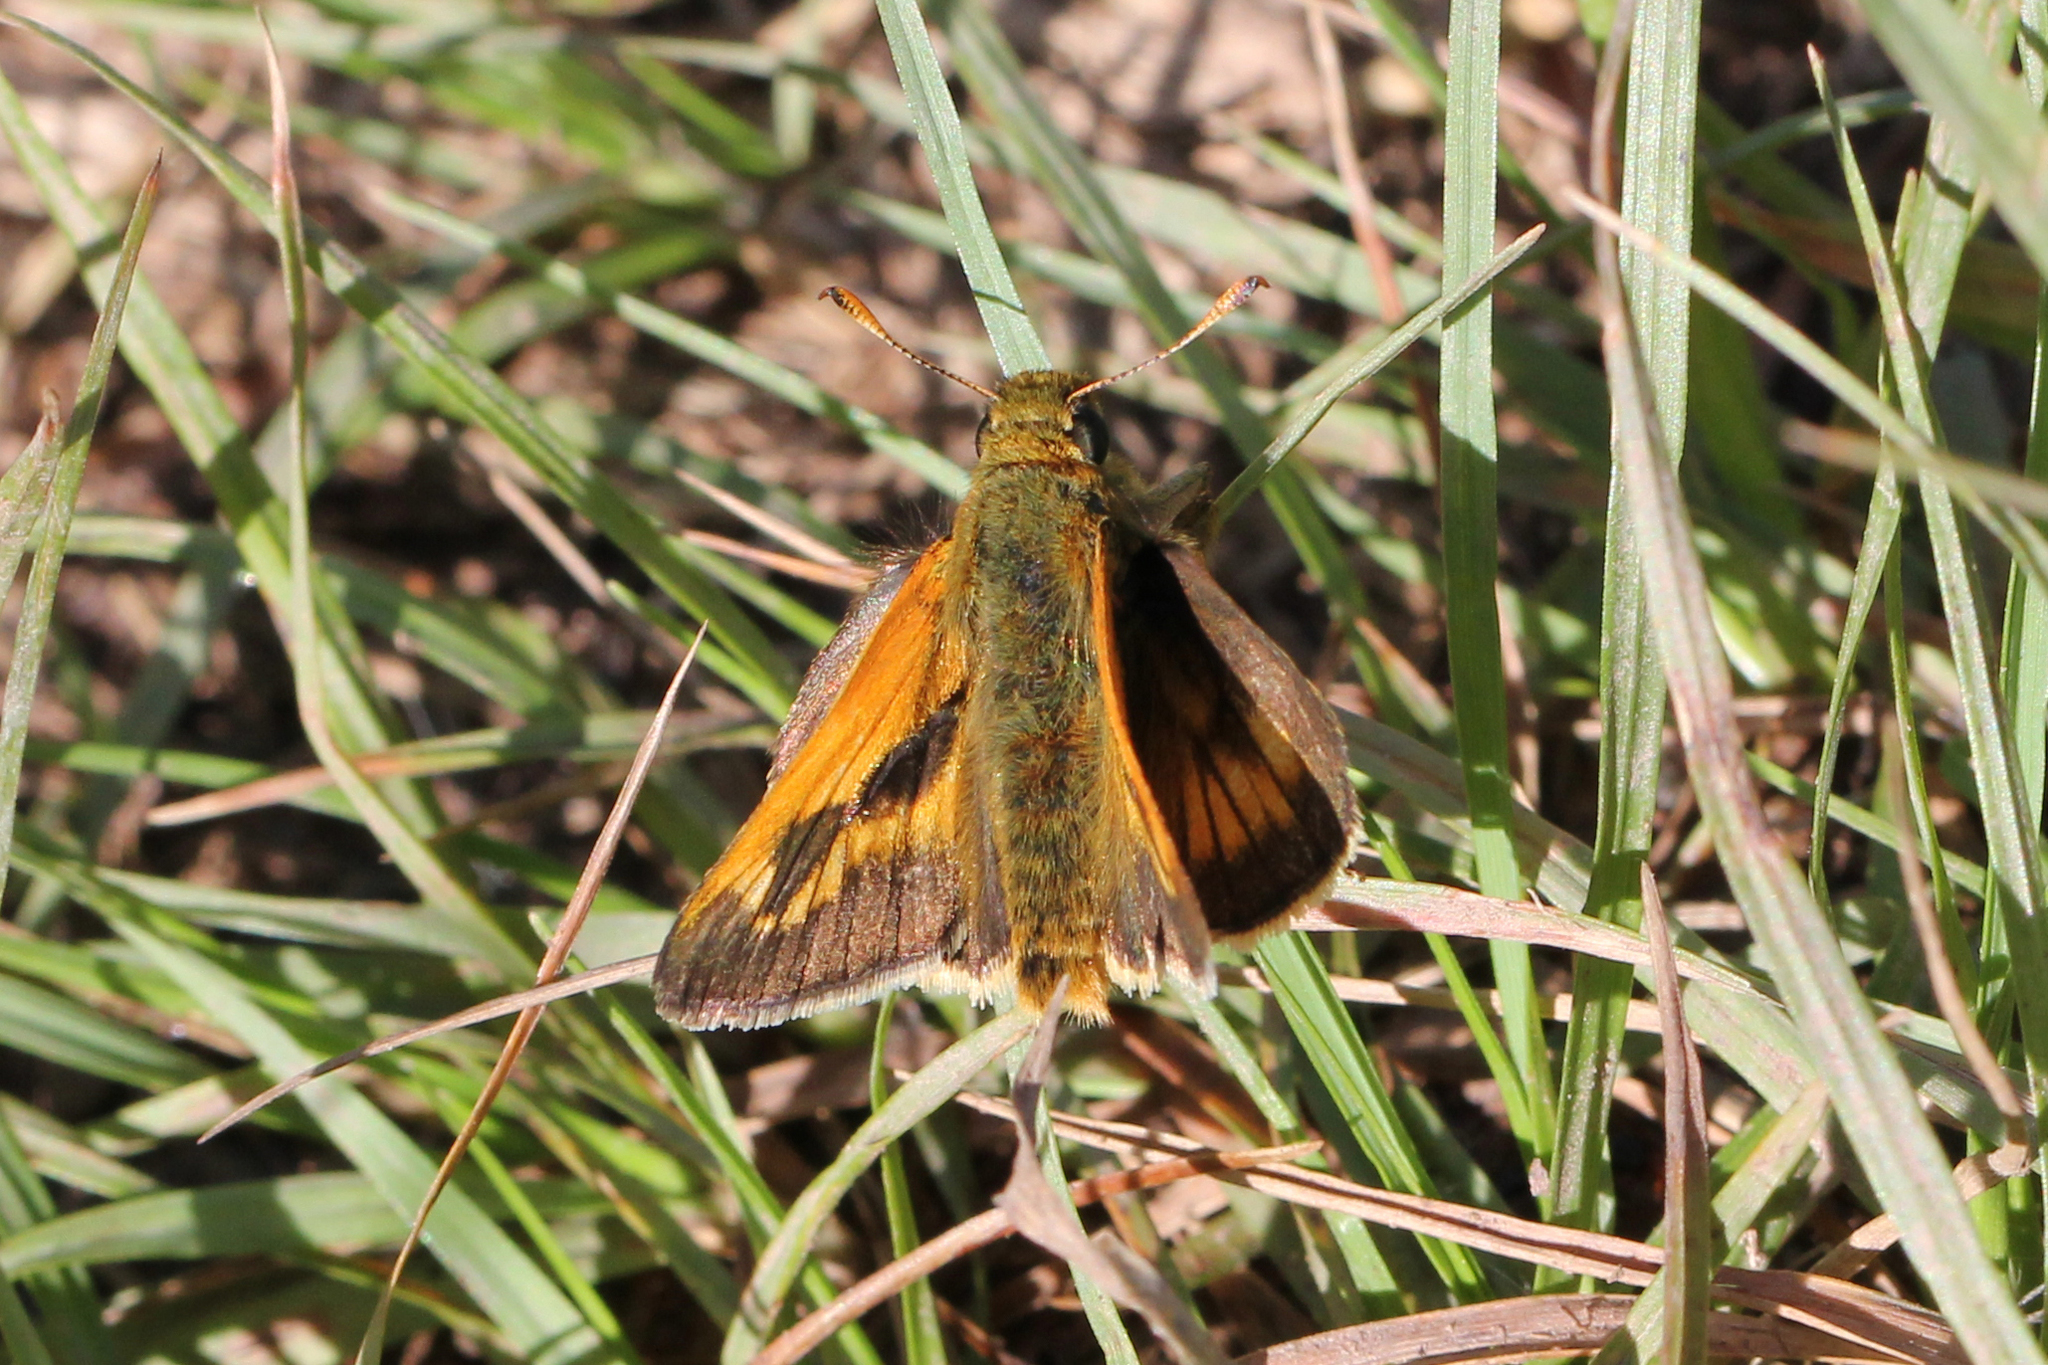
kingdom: Animalia
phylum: Arthropoda
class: Insecta
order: Lepidoptera
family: Hesperiidae
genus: Polites
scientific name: Polites mystic
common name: Long dash
